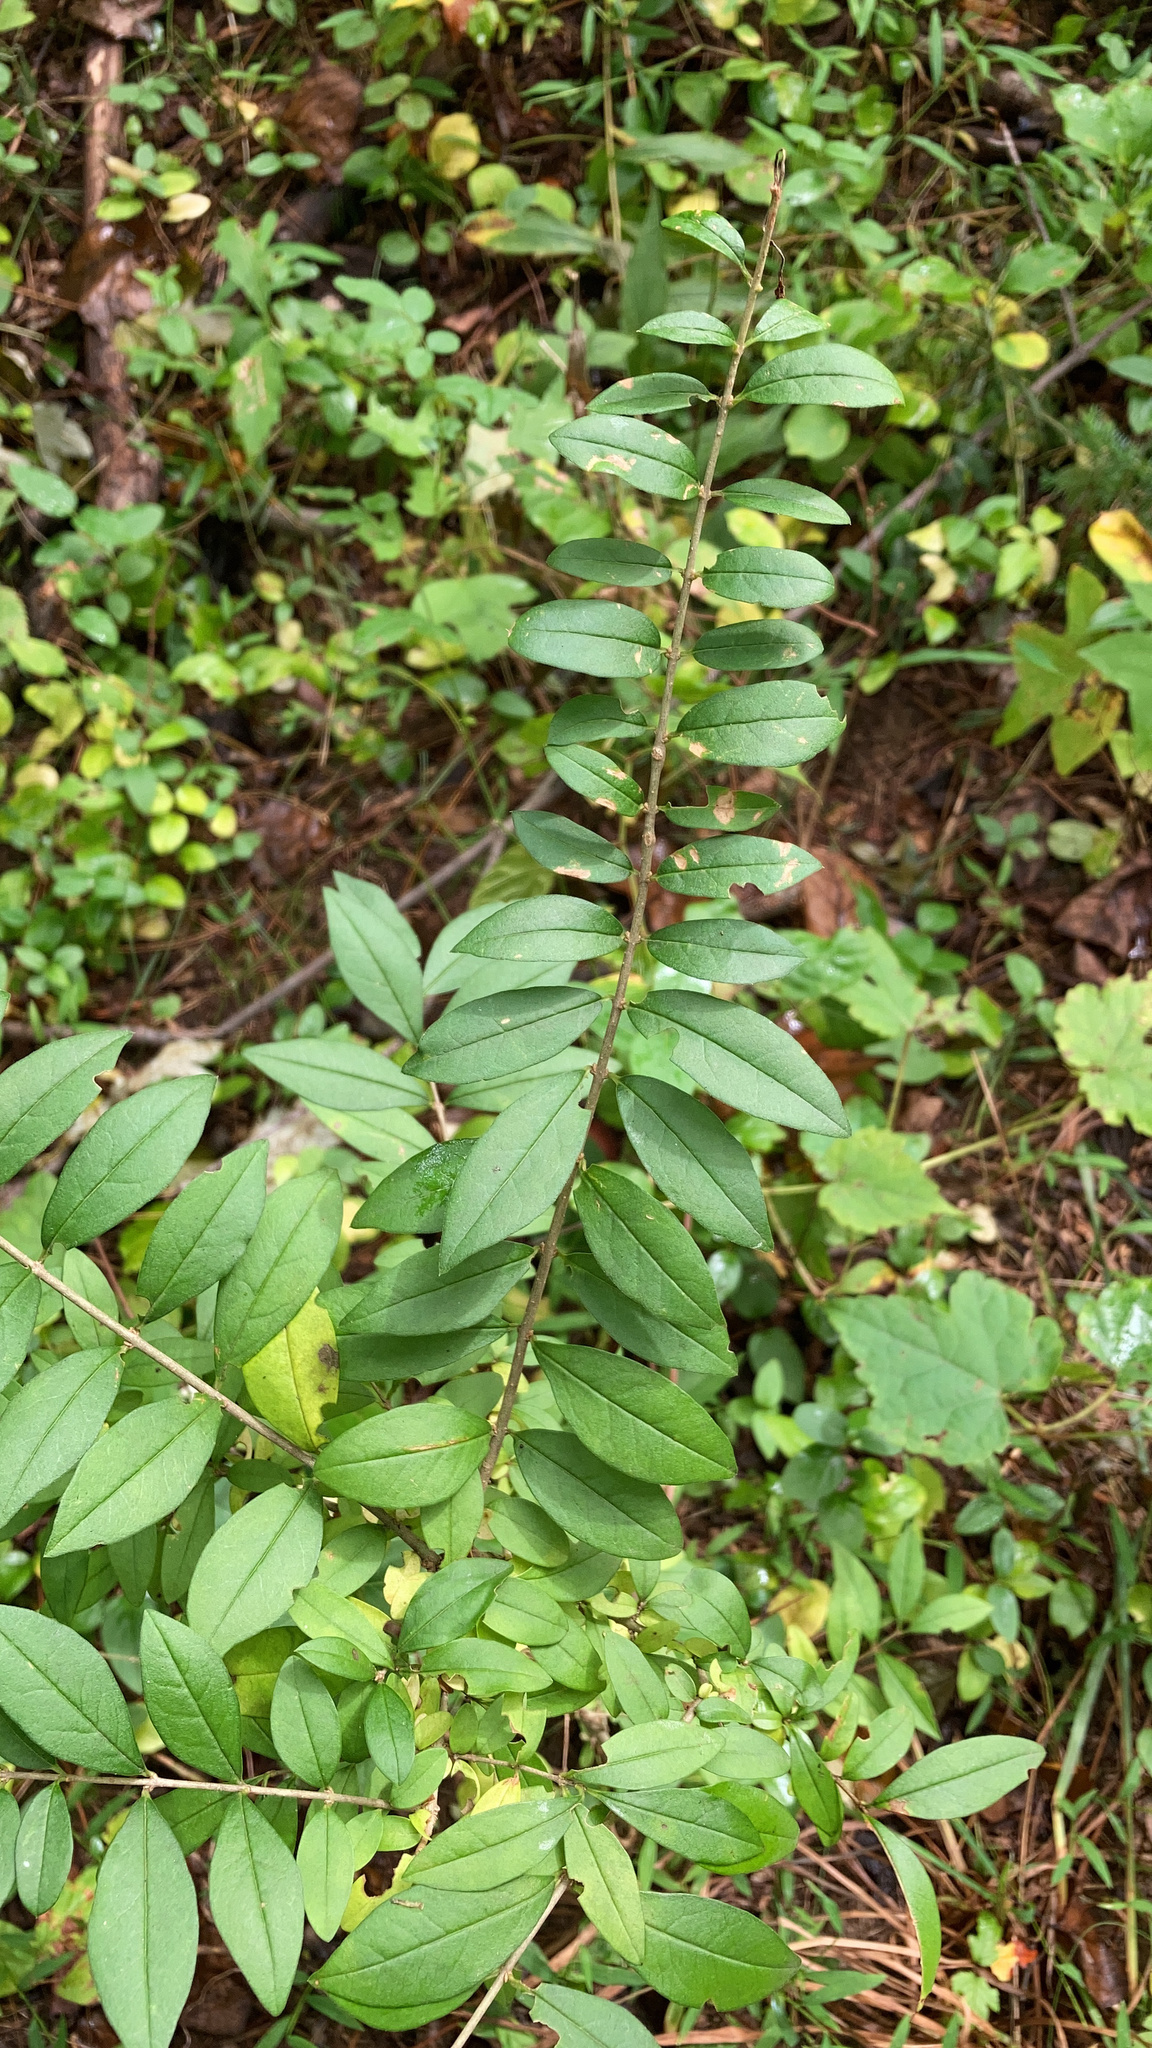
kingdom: Plantae
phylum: Tracheophyta
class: Magnoliopsida
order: Lamiales
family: Oleaceae
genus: Ligustrum
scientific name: Ligustrum obtusifolium
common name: Border privet
